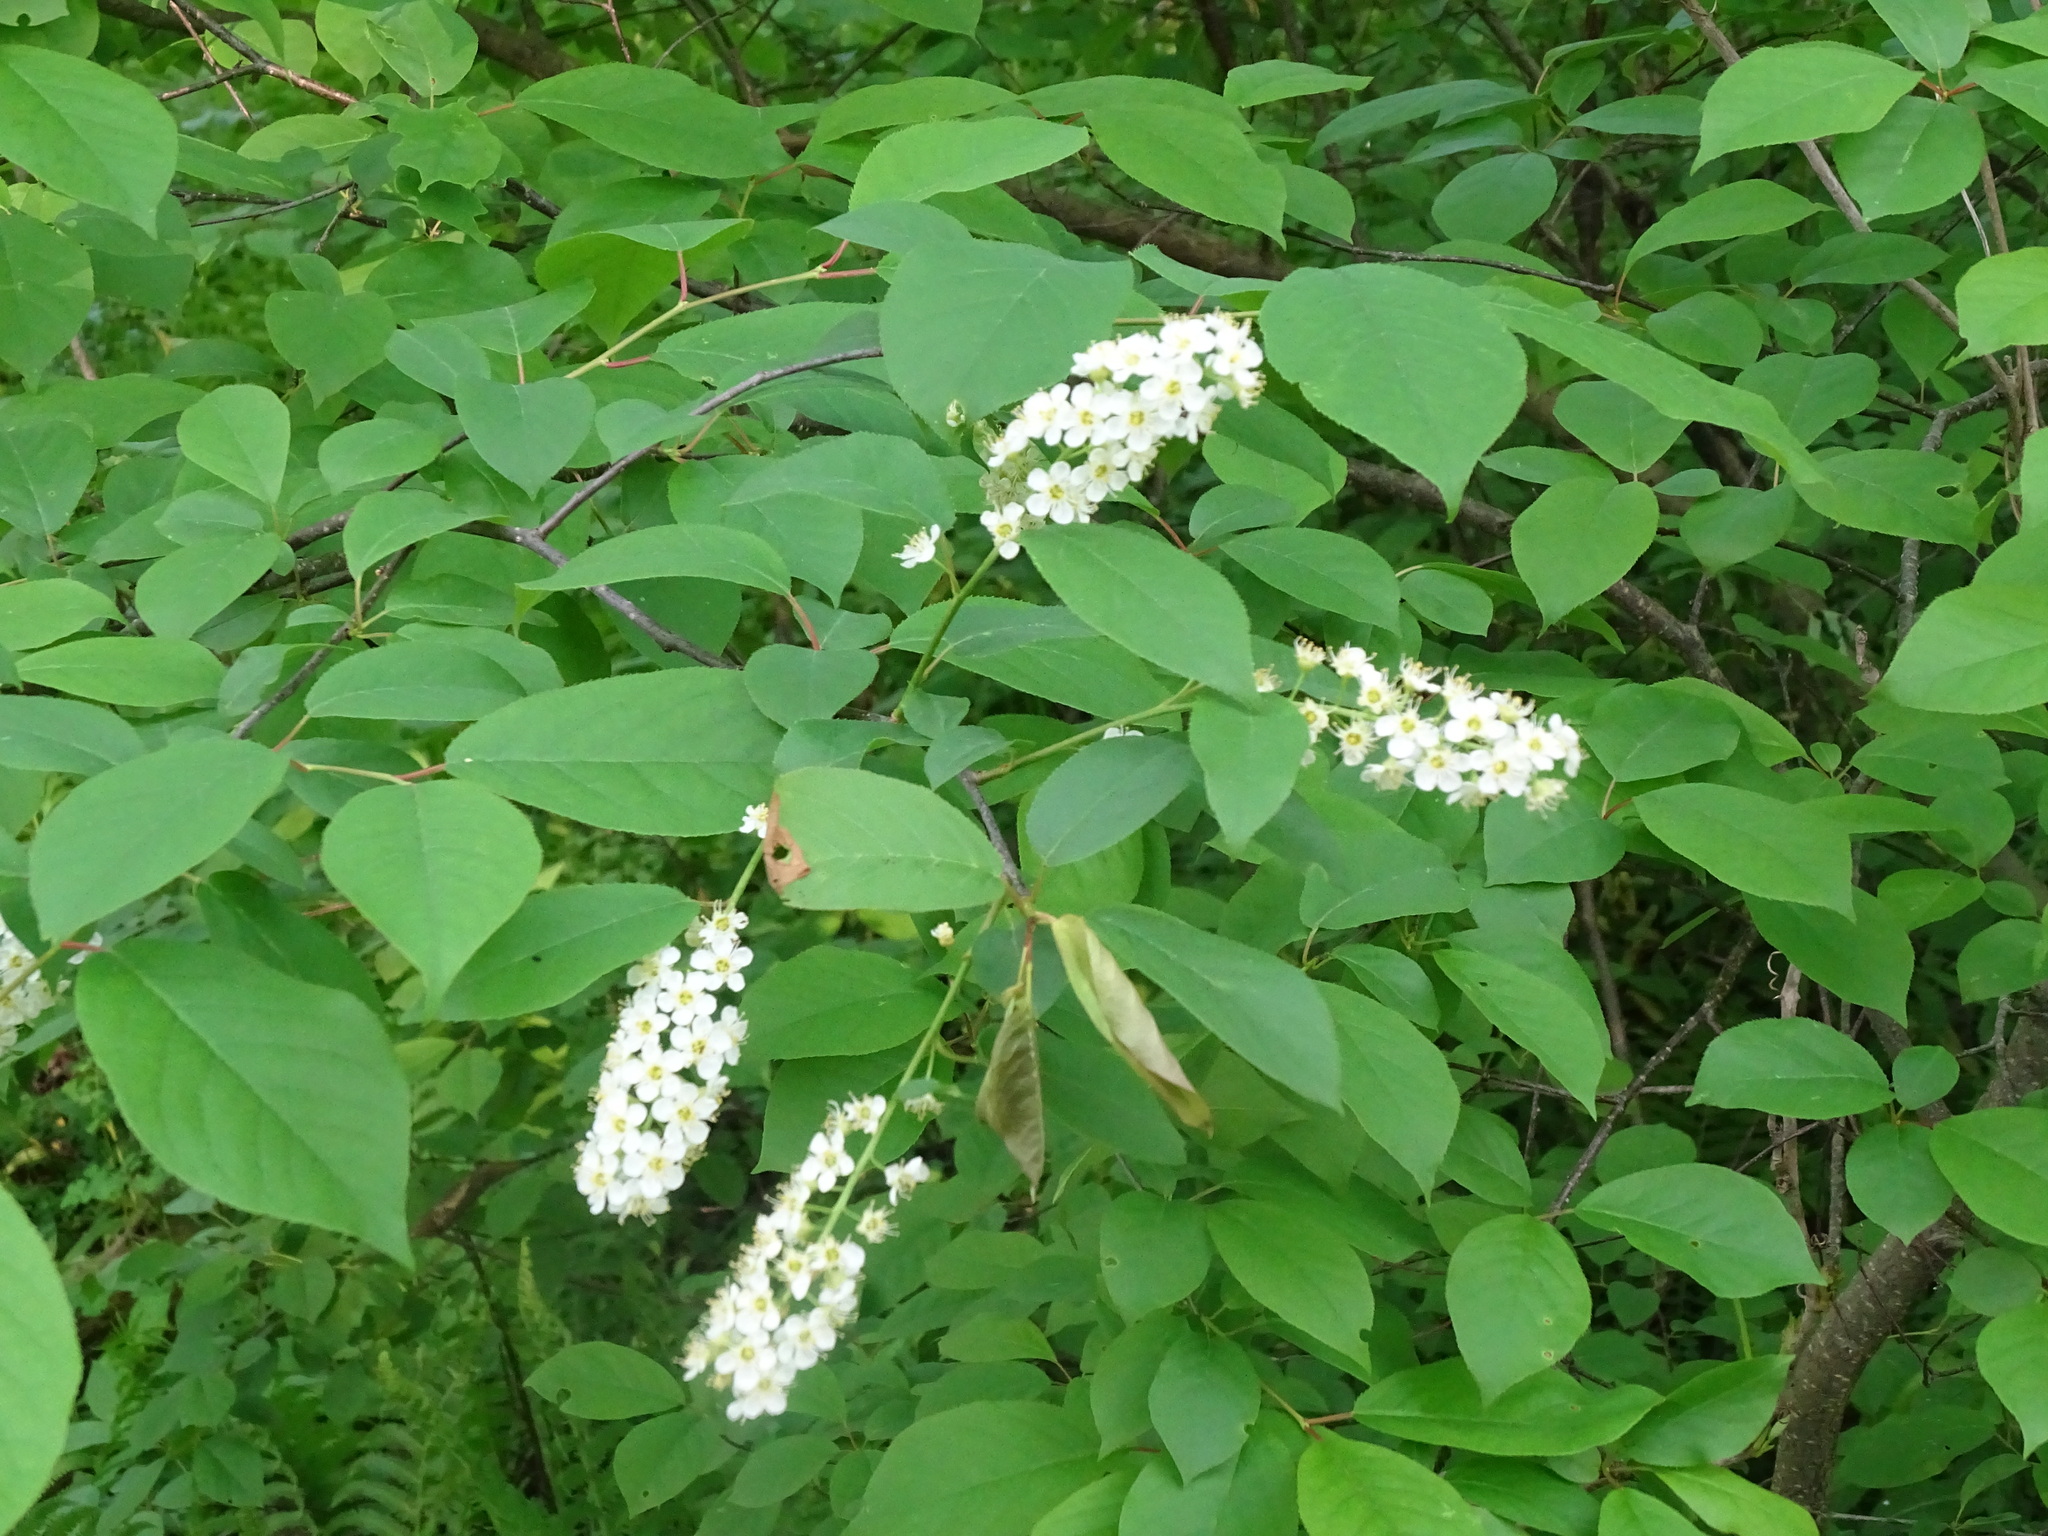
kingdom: Plantae
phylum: Tracheophyta
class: Magnoliopsida
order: Rosales
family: Rosaceae
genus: Prunus
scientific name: Prunus virginiana
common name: Chokecherry
